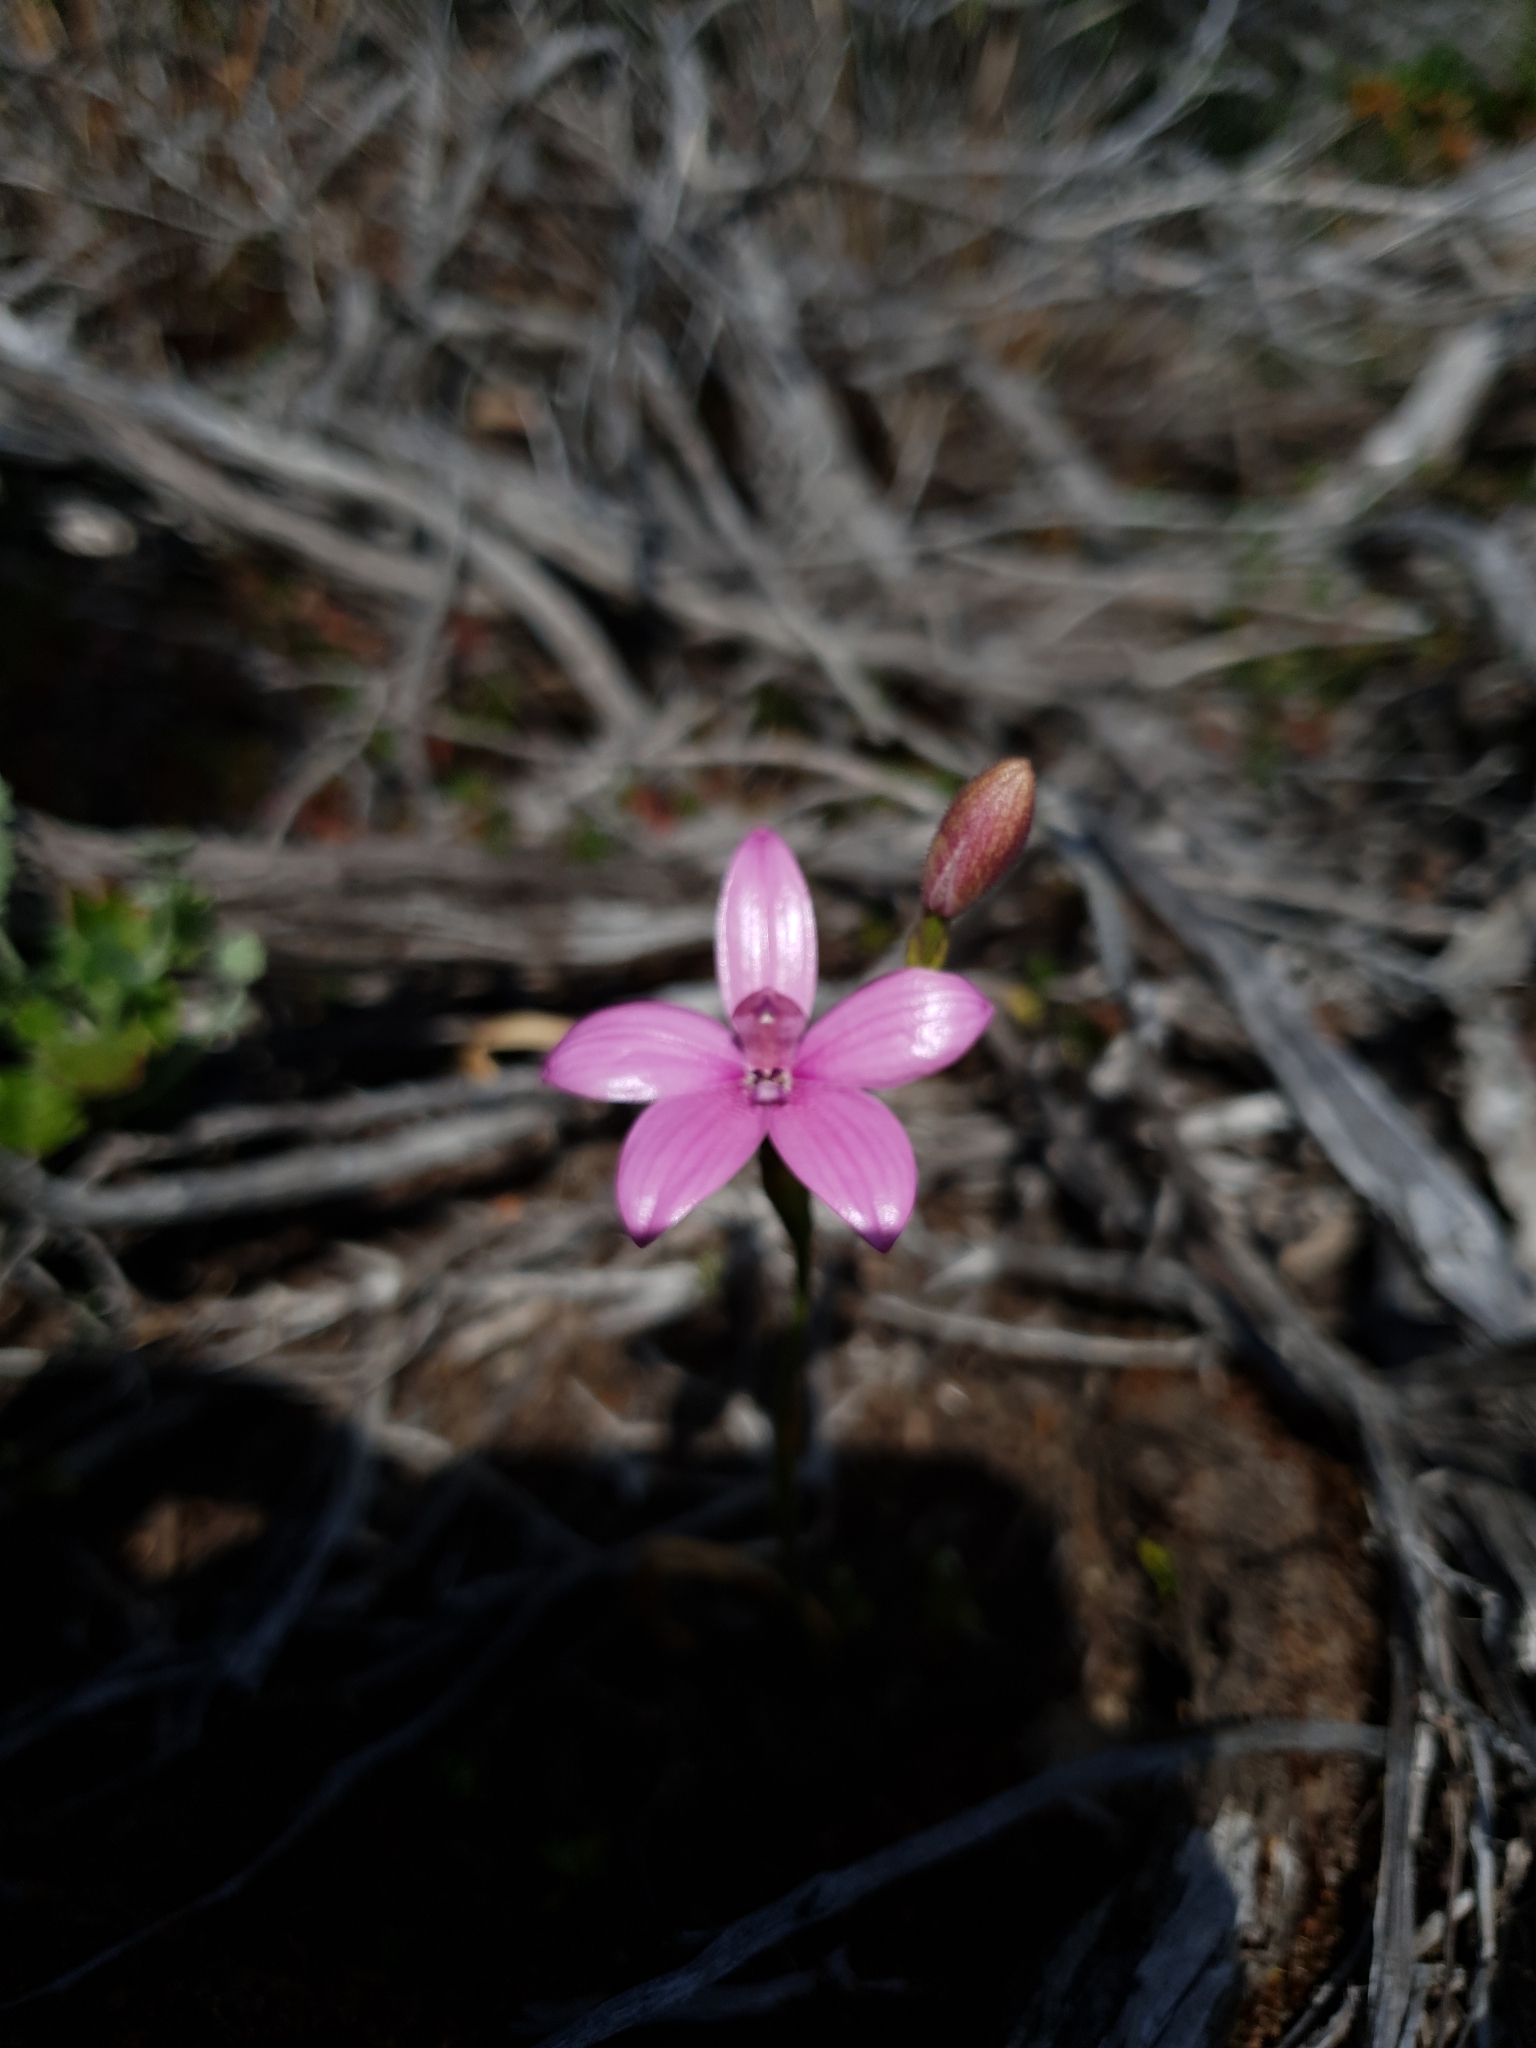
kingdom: Plantae
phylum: Tracheophyta
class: Liliopsida
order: Asparagales
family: Orchidaceae
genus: Caladenia
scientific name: Caladenia emarginata
